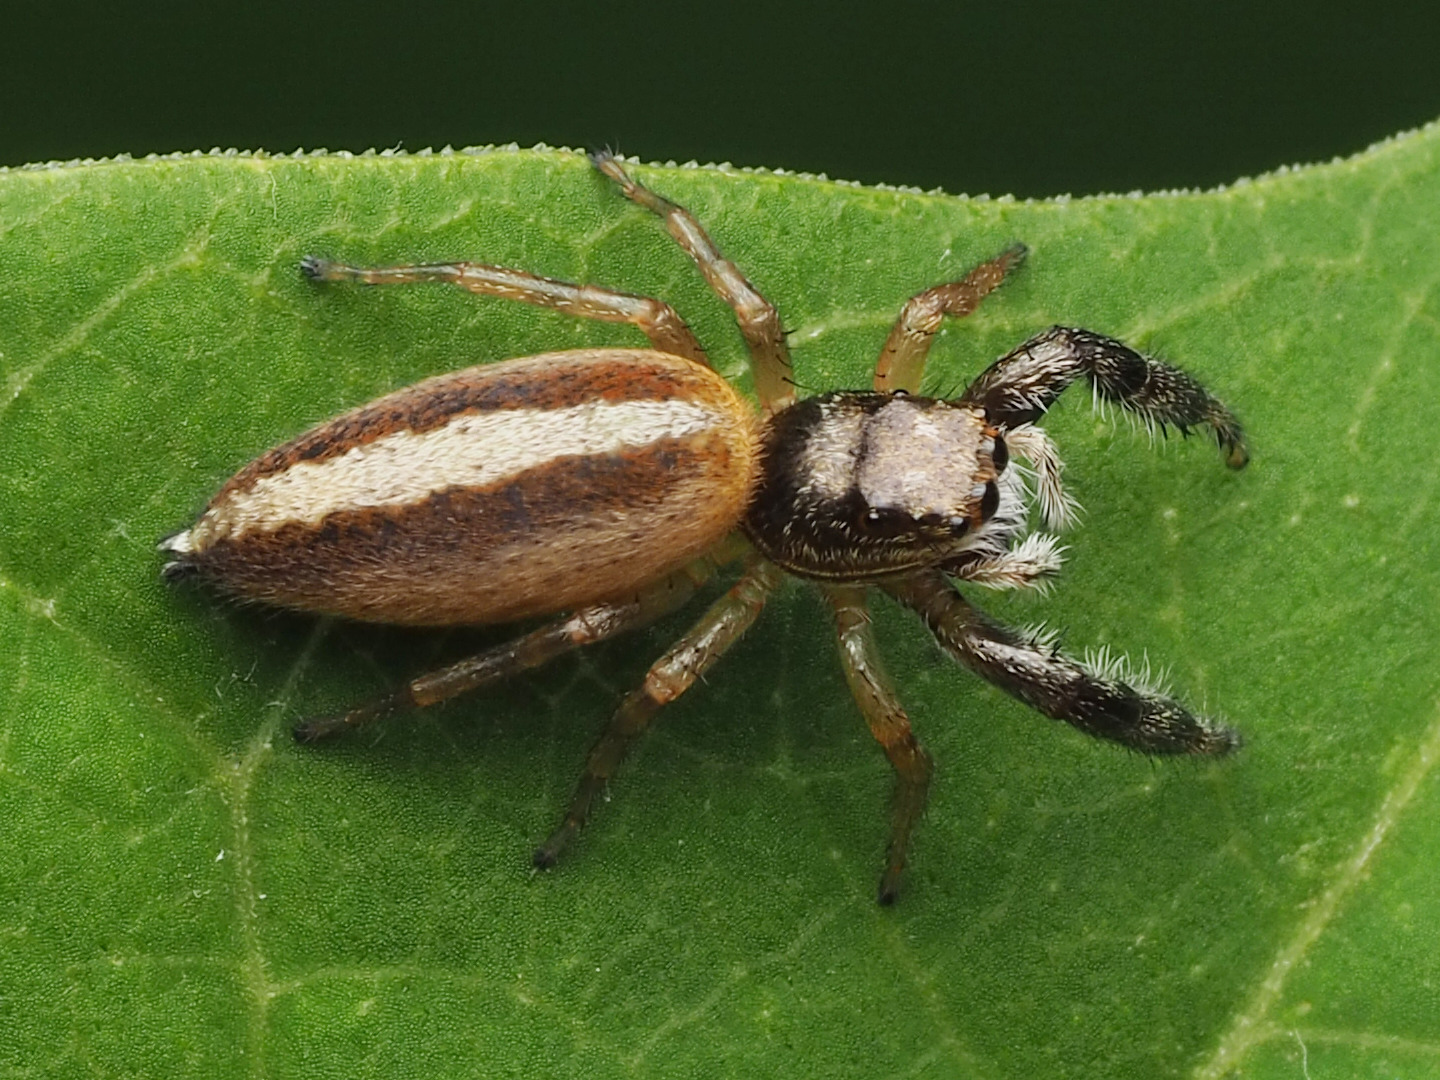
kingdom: Animalia
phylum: Arthropoda
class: Arachnida
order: Araneae
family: Salticidae
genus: Marpissa
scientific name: Marpissa formosa
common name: Short-bellied slender jumping spider
